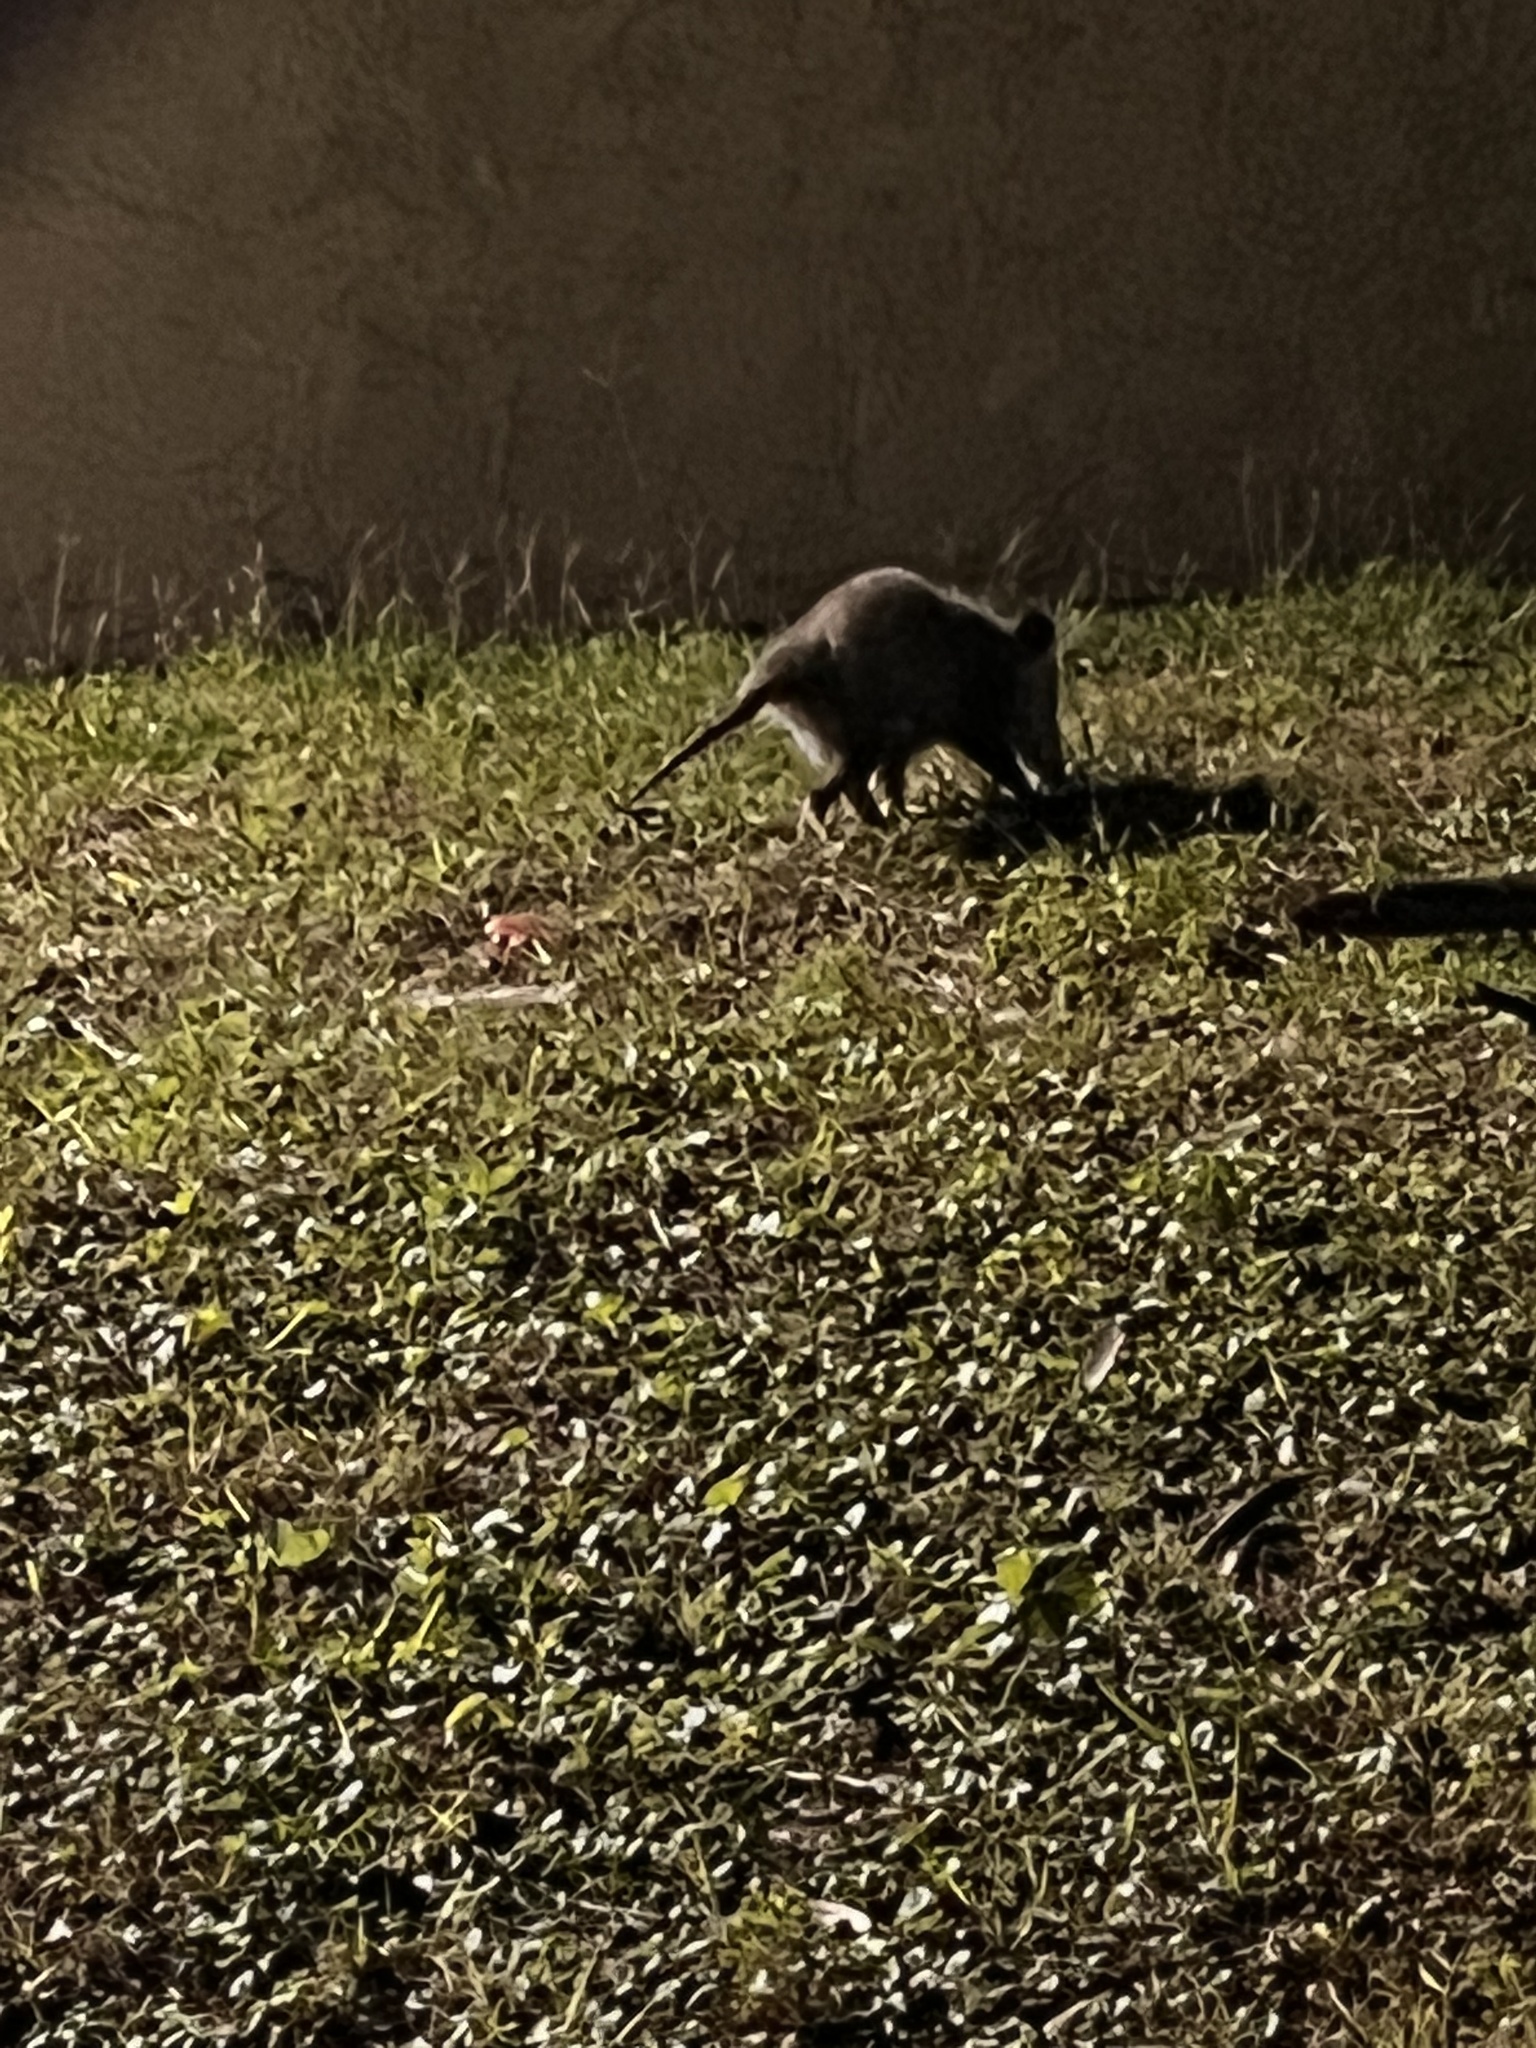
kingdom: Animalia
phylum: Chordata
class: Mammalia
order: Didelphimorphia
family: Didelphidae
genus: Didelphis
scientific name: Didelphis virginiana
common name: Virginia opossum
